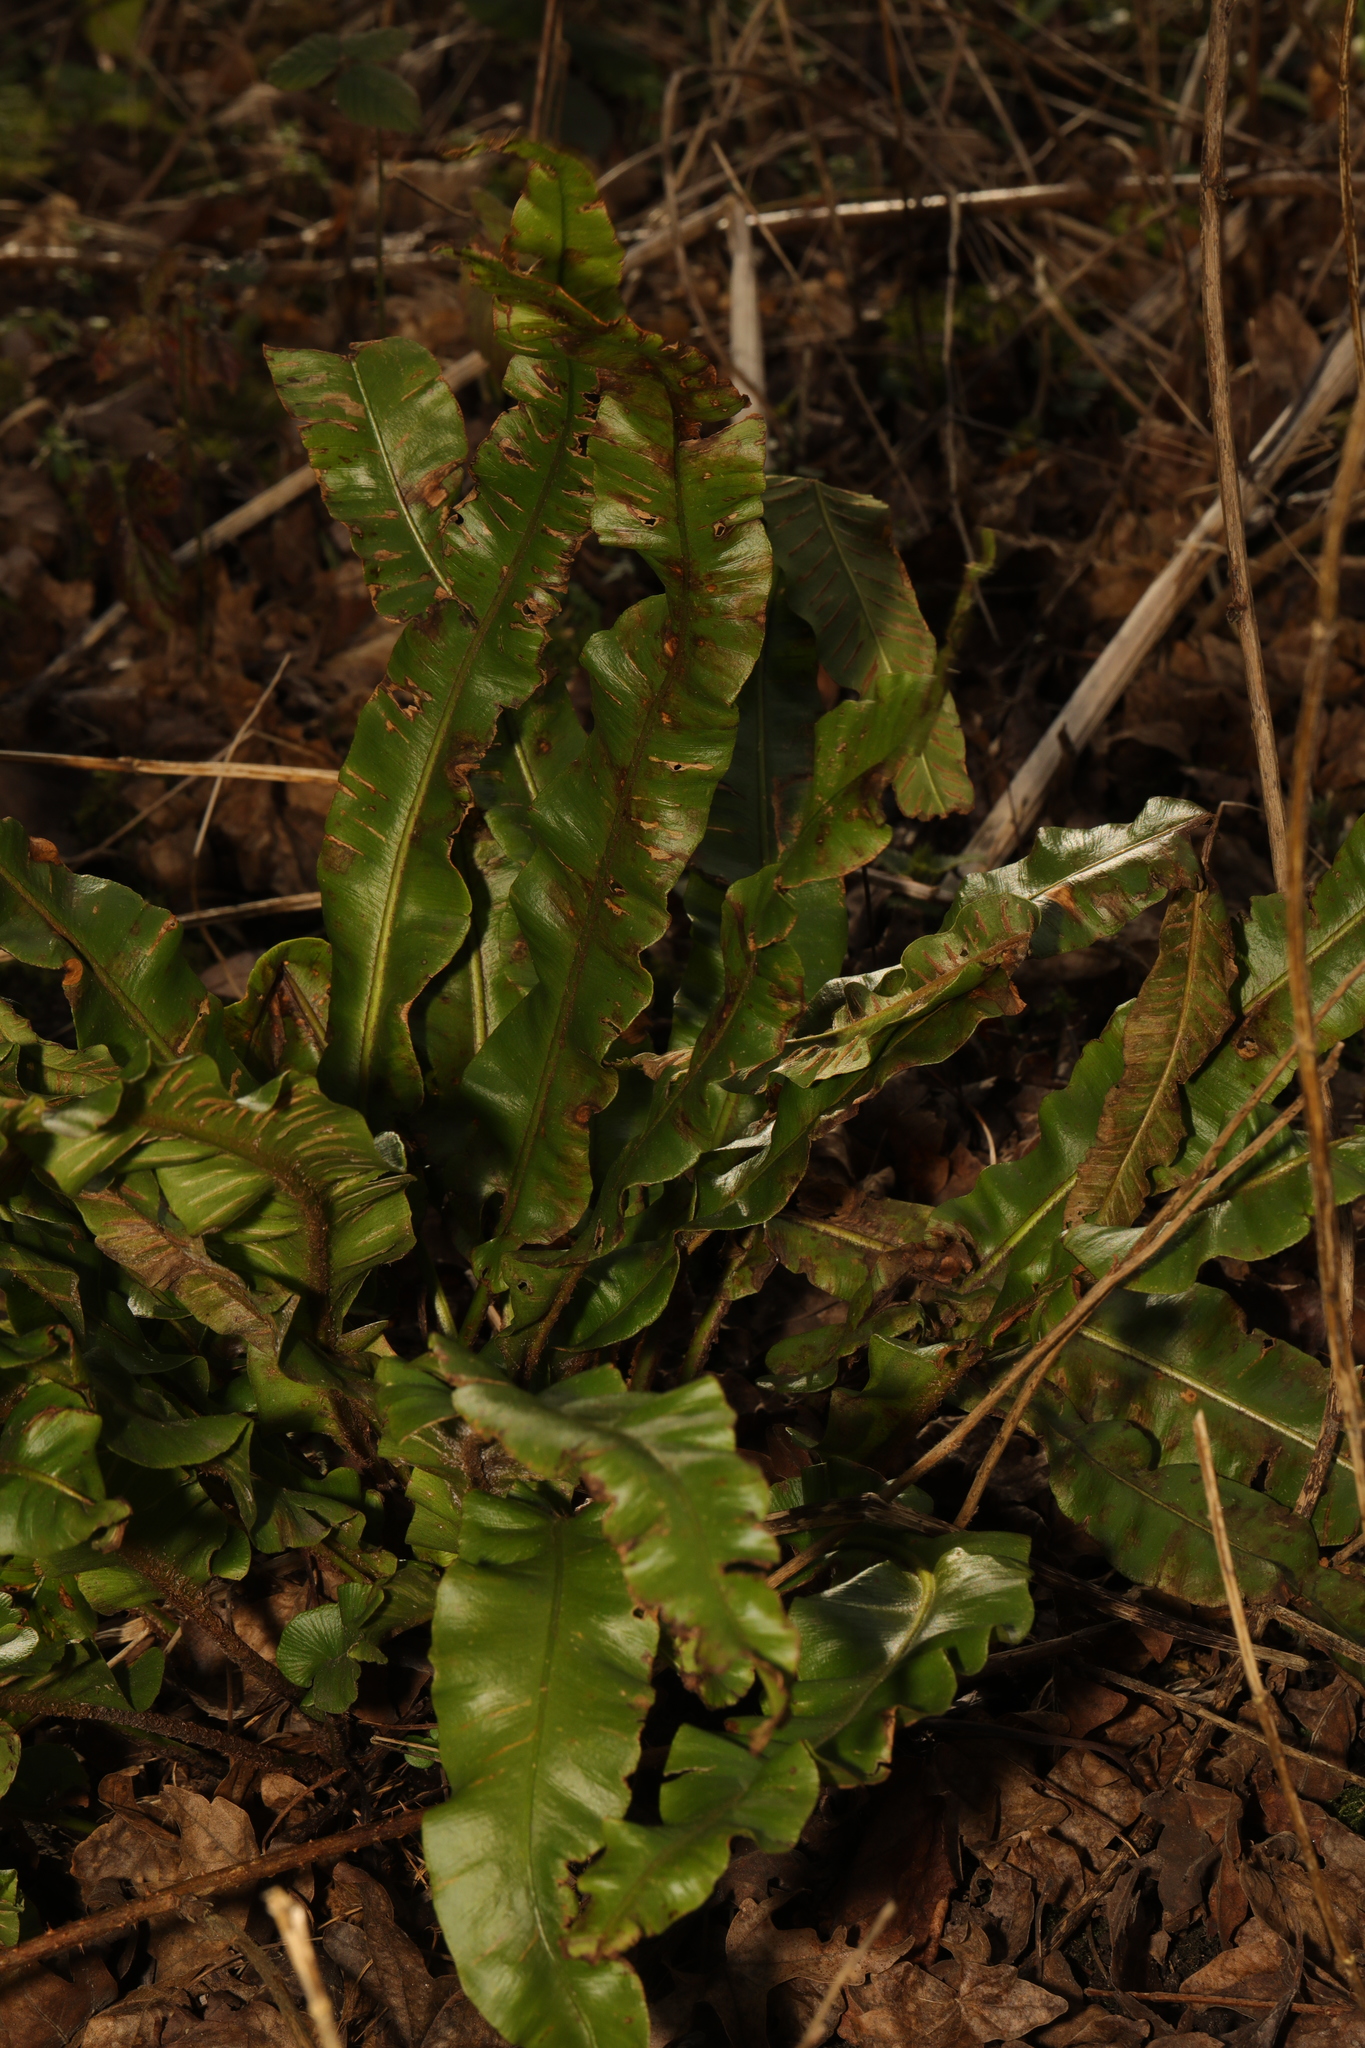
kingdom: Plantae
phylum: Tracheophyta
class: Polypodiopsida
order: Polypodiales
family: Aspleniaceae
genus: Asplenium
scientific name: Asplenium scolopendrium
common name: Hart's-tongue fern
